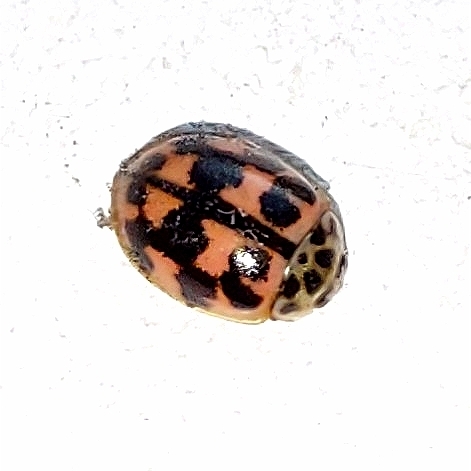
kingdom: Animalia
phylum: Arthropoda
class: Insecta
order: Coleoptera
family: Coccinellidae
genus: Oenopia
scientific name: Oenopia conglobata
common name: Ladybird beetle
